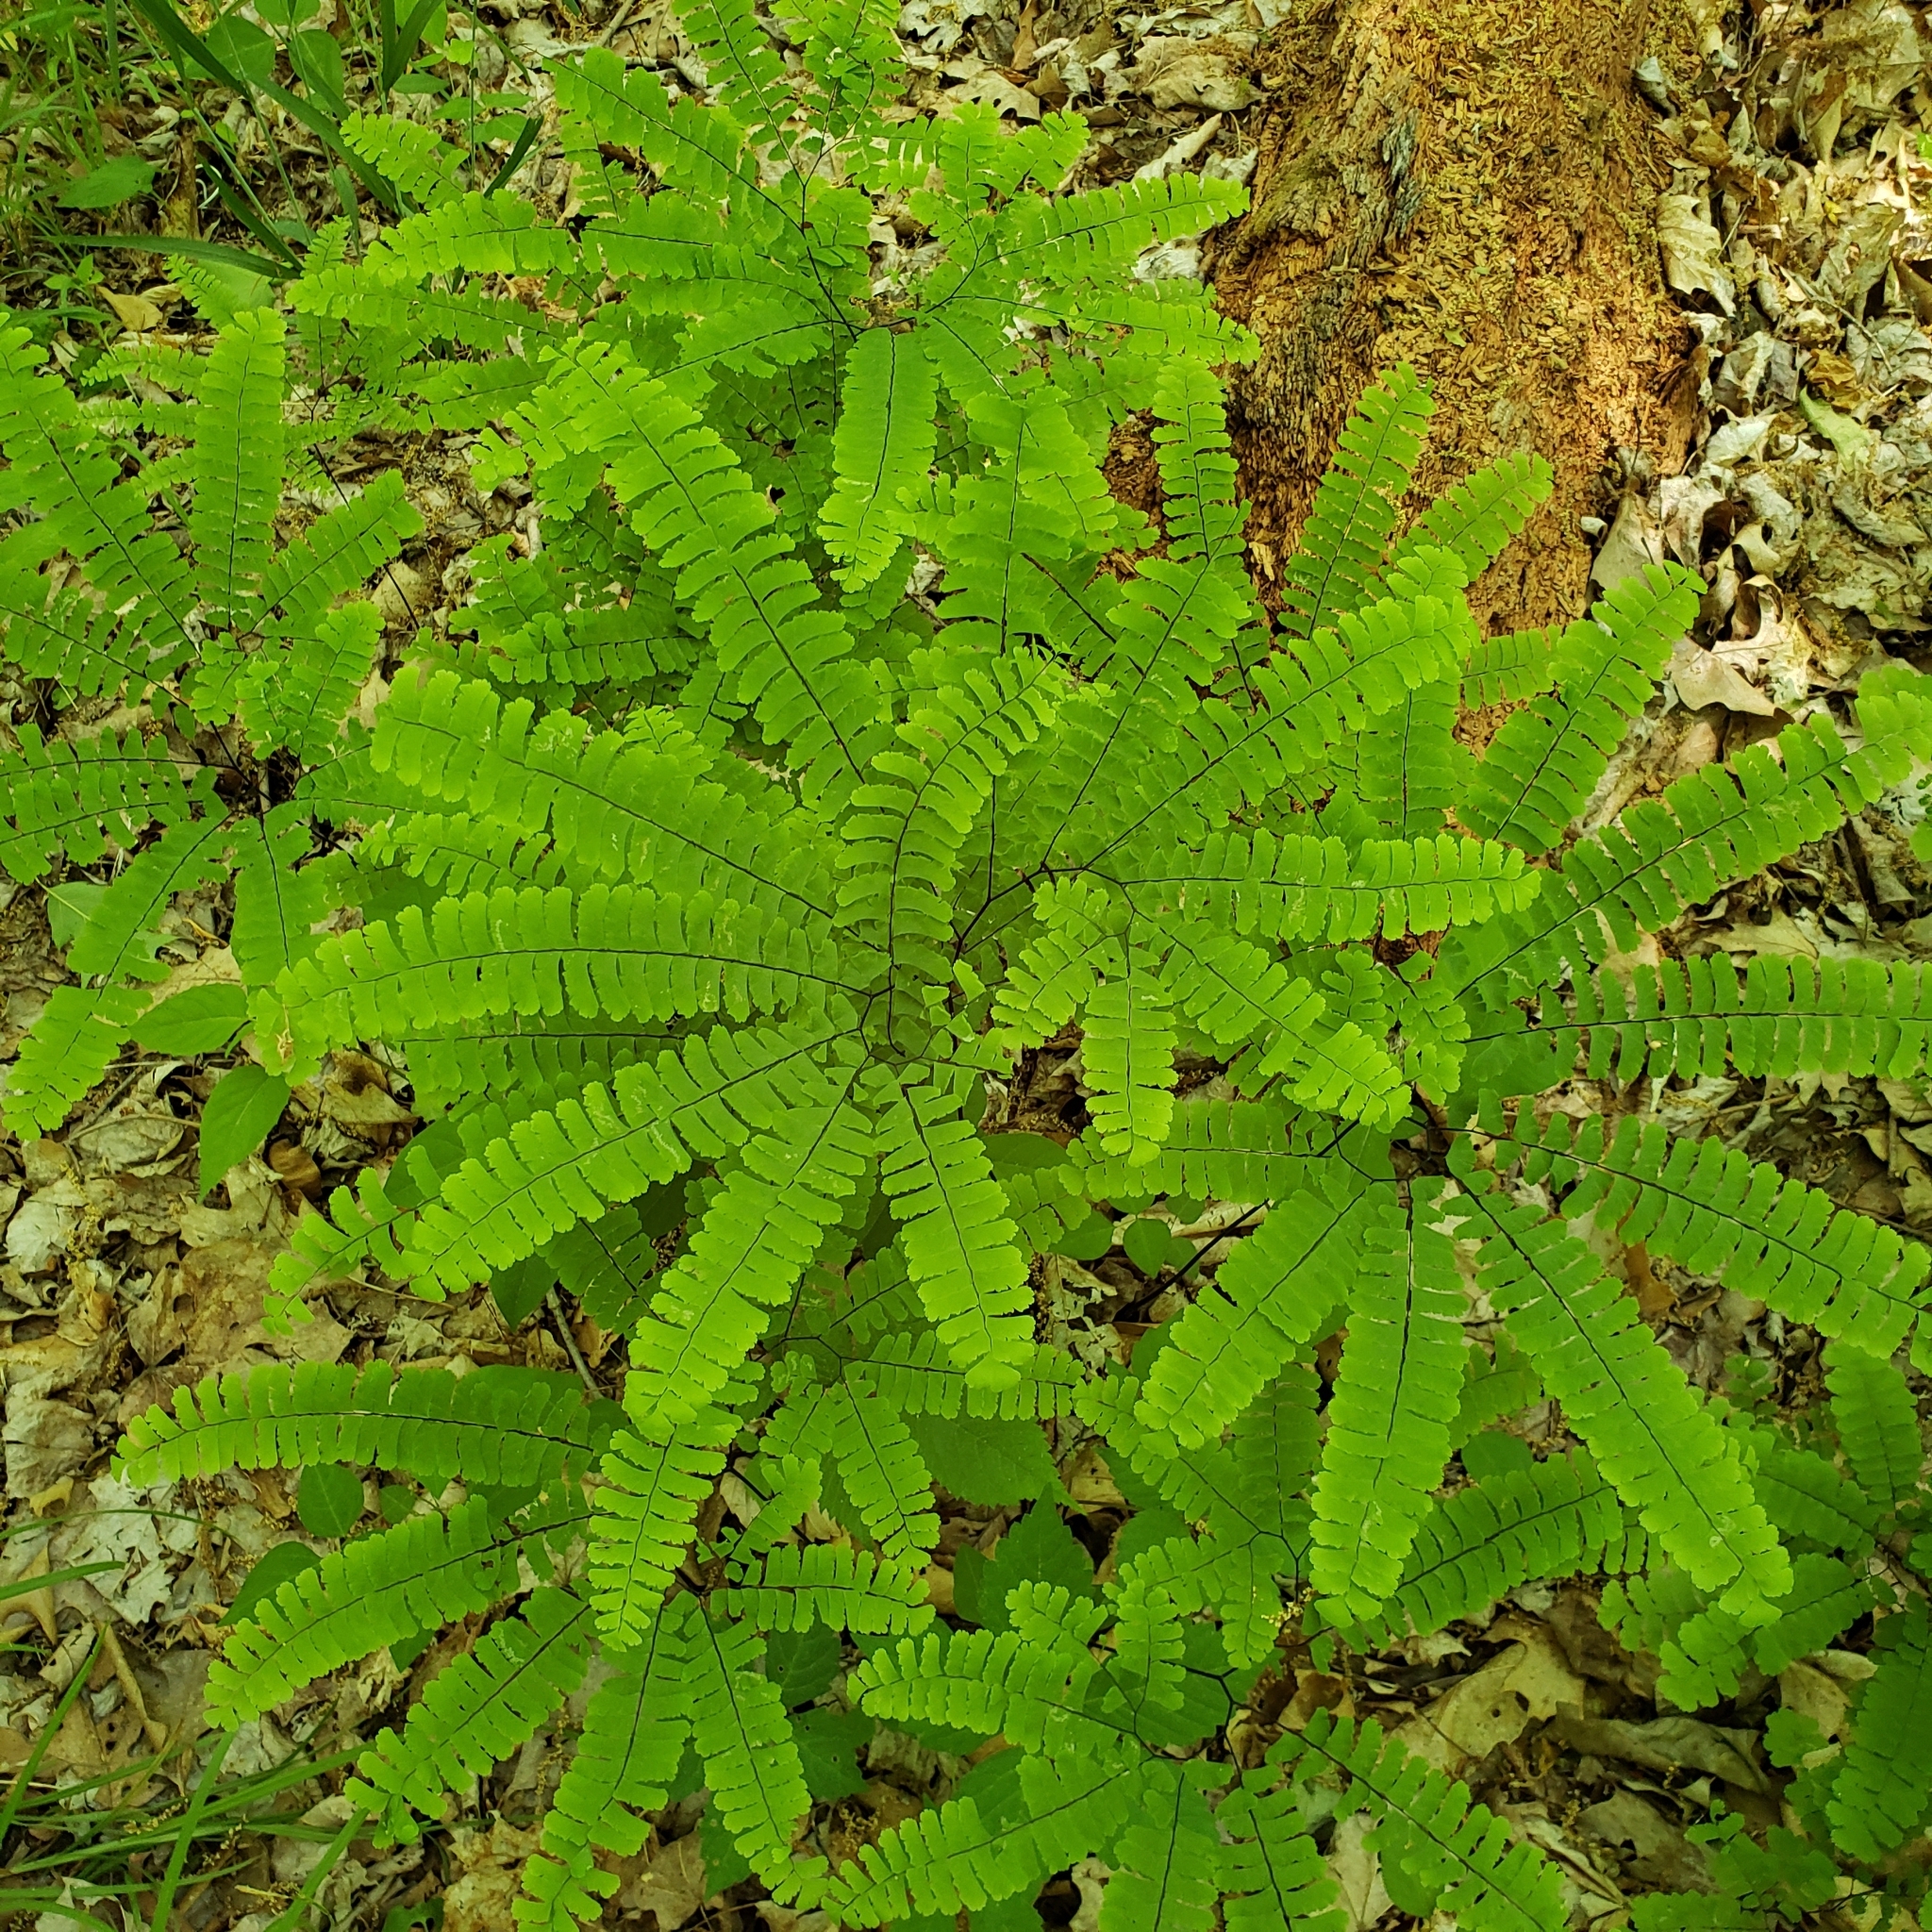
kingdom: Plantae
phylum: Tracheophyta
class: Polypodiopsida
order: Polypodiales
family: Pteridaceae
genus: Adiantum
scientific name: Adiantum pedatum
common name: Five-finger fern
